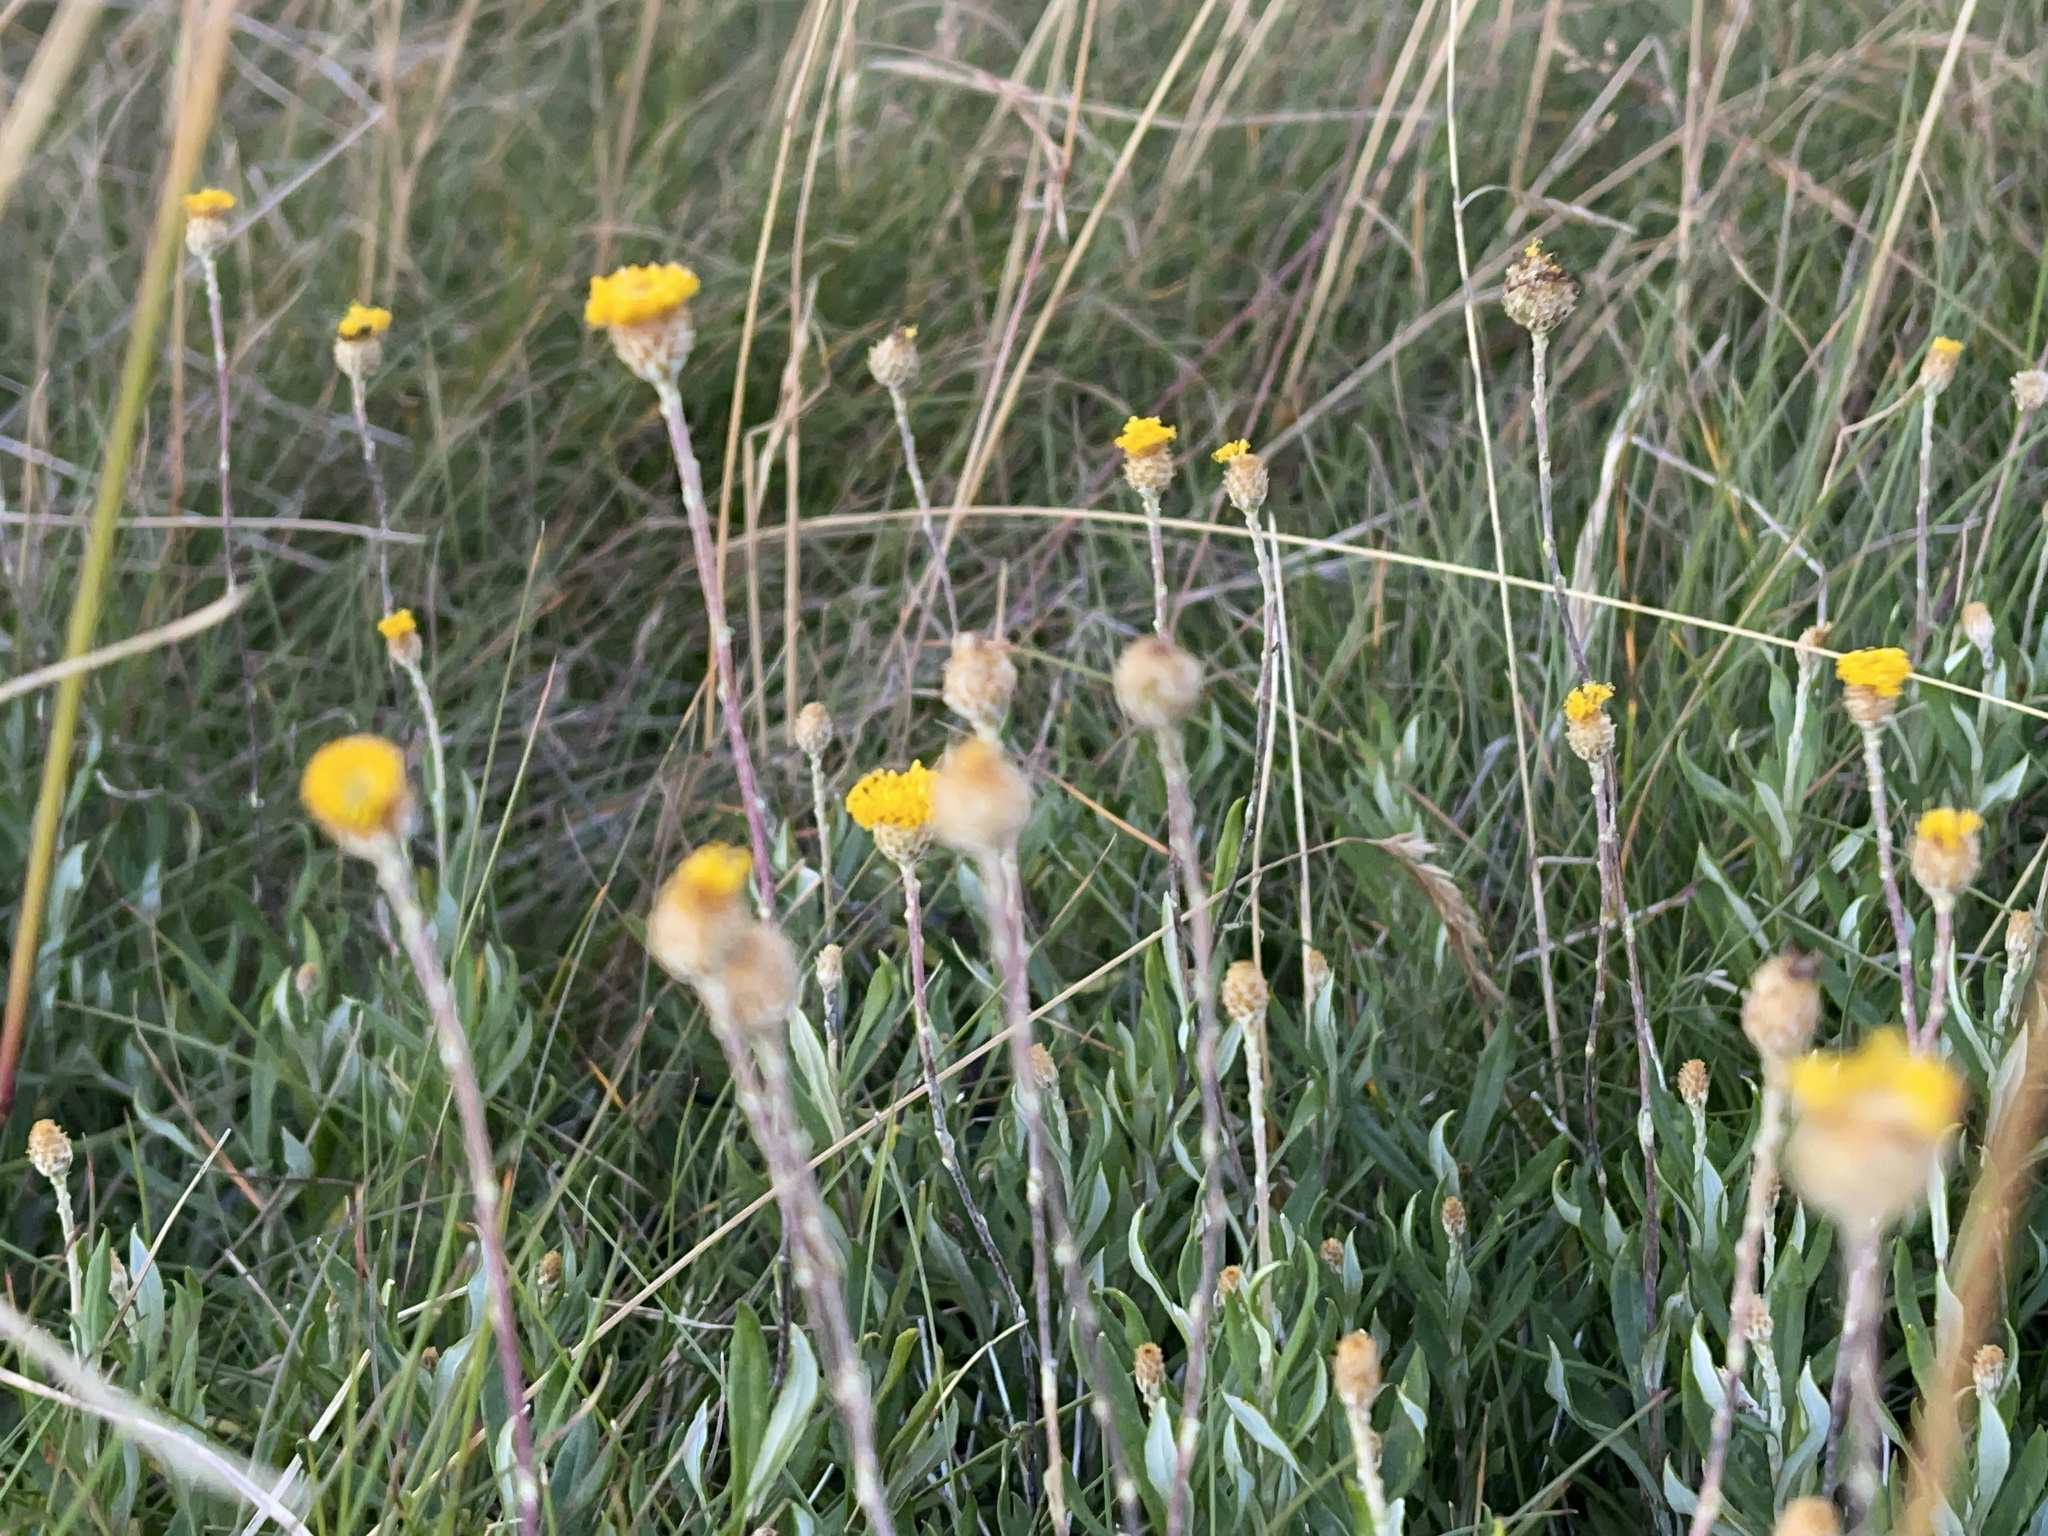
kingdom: Plantae
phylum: Tracheophyta
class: Magnoliopsida
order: Asterales
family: Asteraceae
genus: Leptorhynchos
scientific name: Leptorhynchos squamatus
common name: Scaly-buttons
